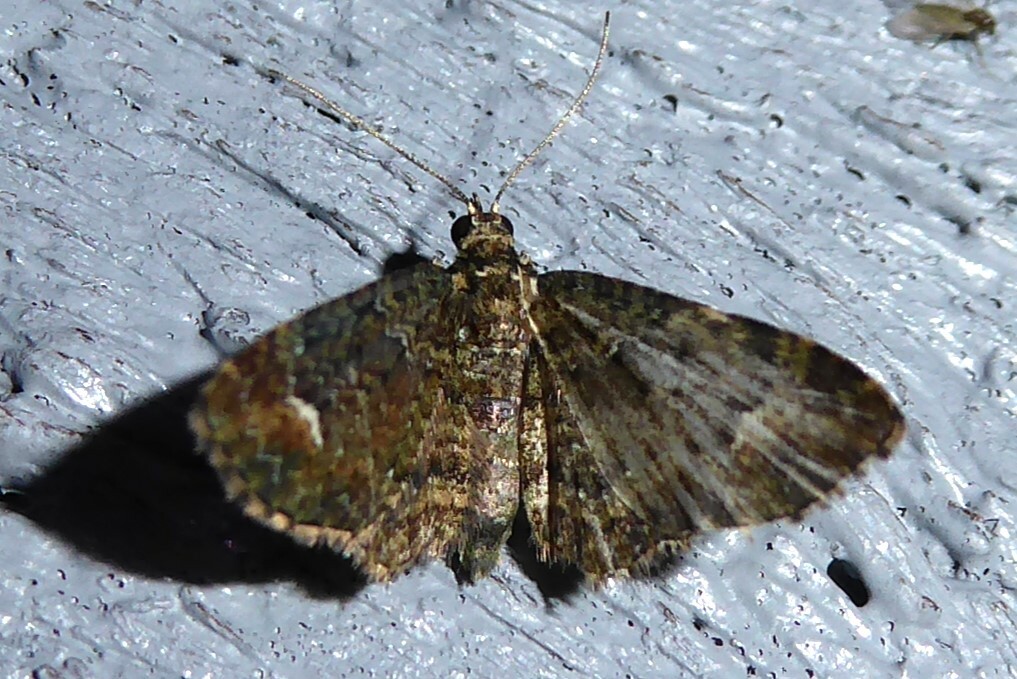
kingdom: Animalia
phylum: Arthropoda
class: Insecta
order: Lepidoptera
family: Geometridae
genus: Pasiphilodes
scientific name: Pasiphilodes testulata
